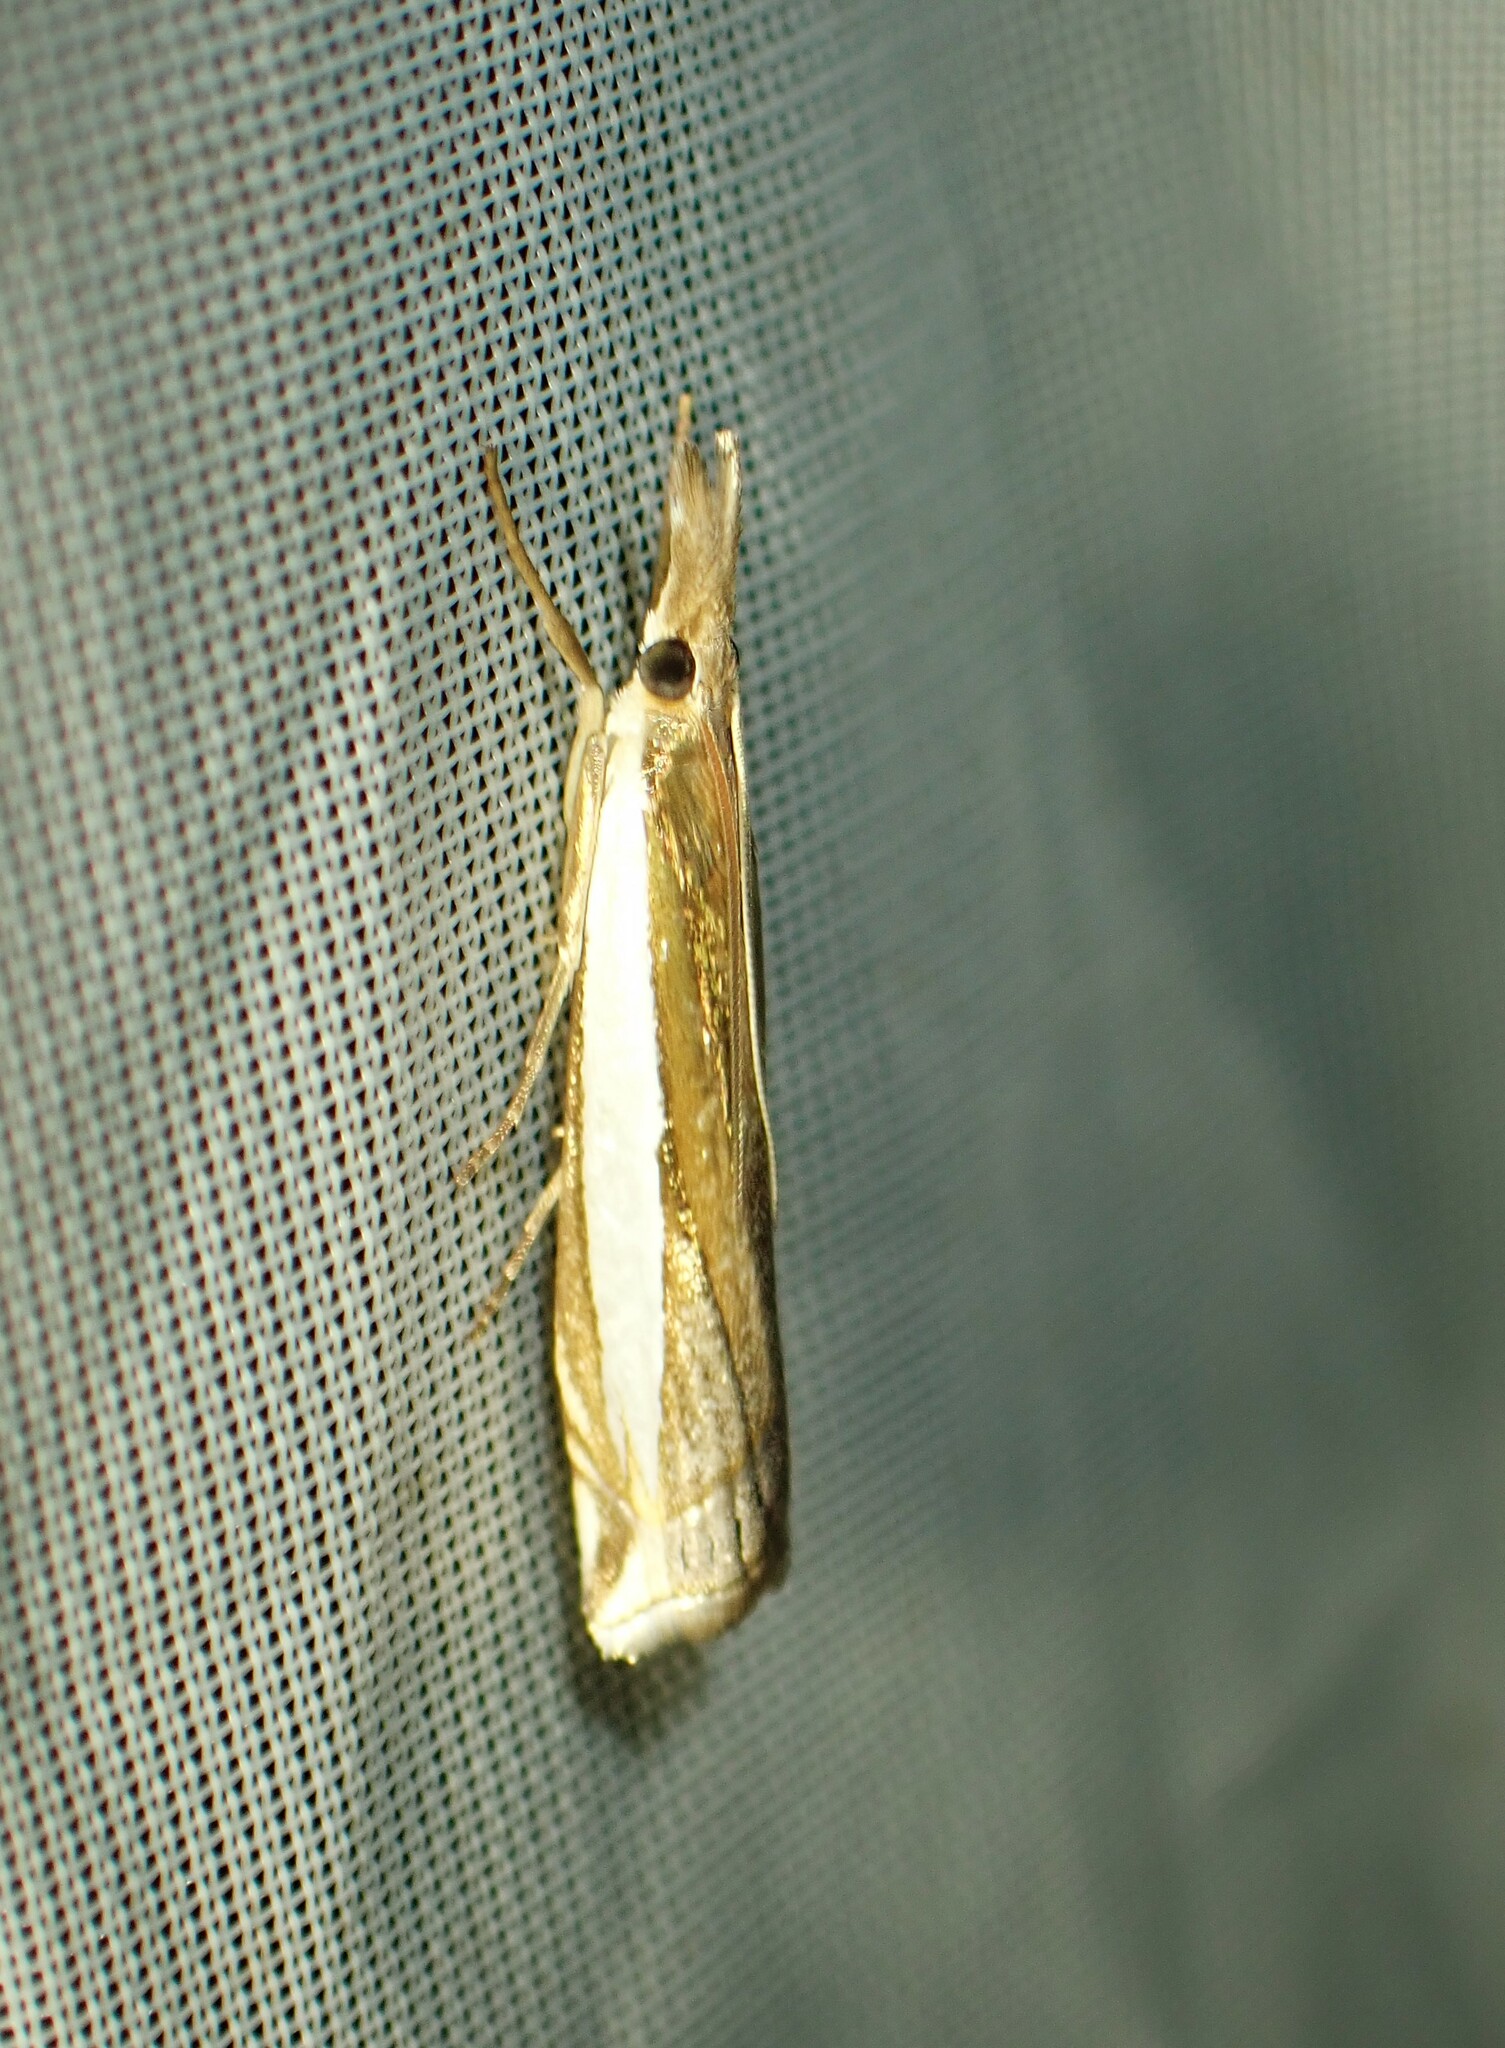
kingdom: Animalia
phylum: Arthropoda
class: Insecta
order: Lepidoptera
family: Crambidae
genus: Crambus
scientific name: Crambus leachellus
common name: Leach's grass-veneer
